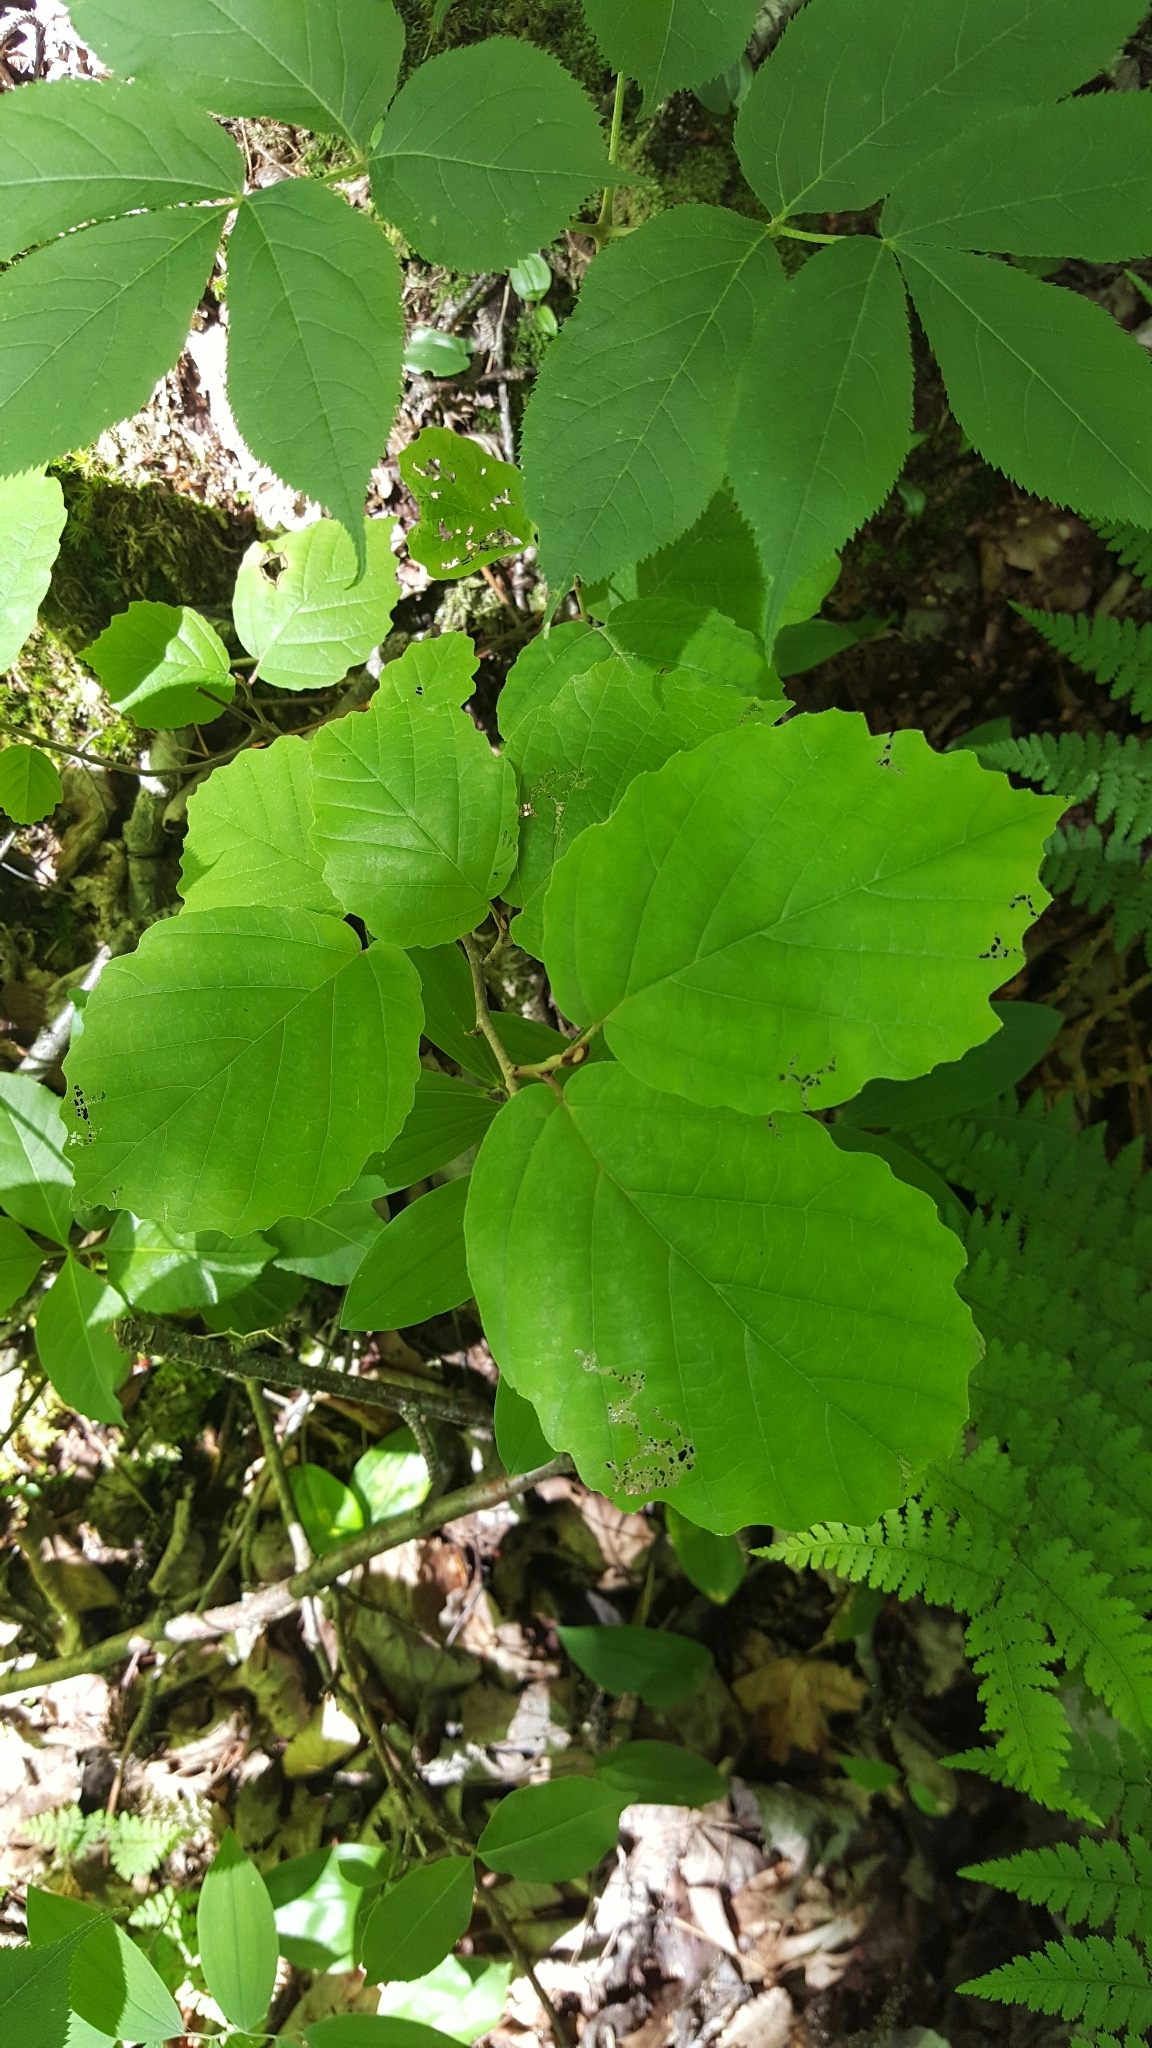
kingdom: Plantae
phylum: Tracheophyta
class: Magnoliopsida
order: Saxifragales
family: Hamamelidaceae
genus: Hamamelis
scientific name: Hamamelis virginiana
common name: Witch-hazel
